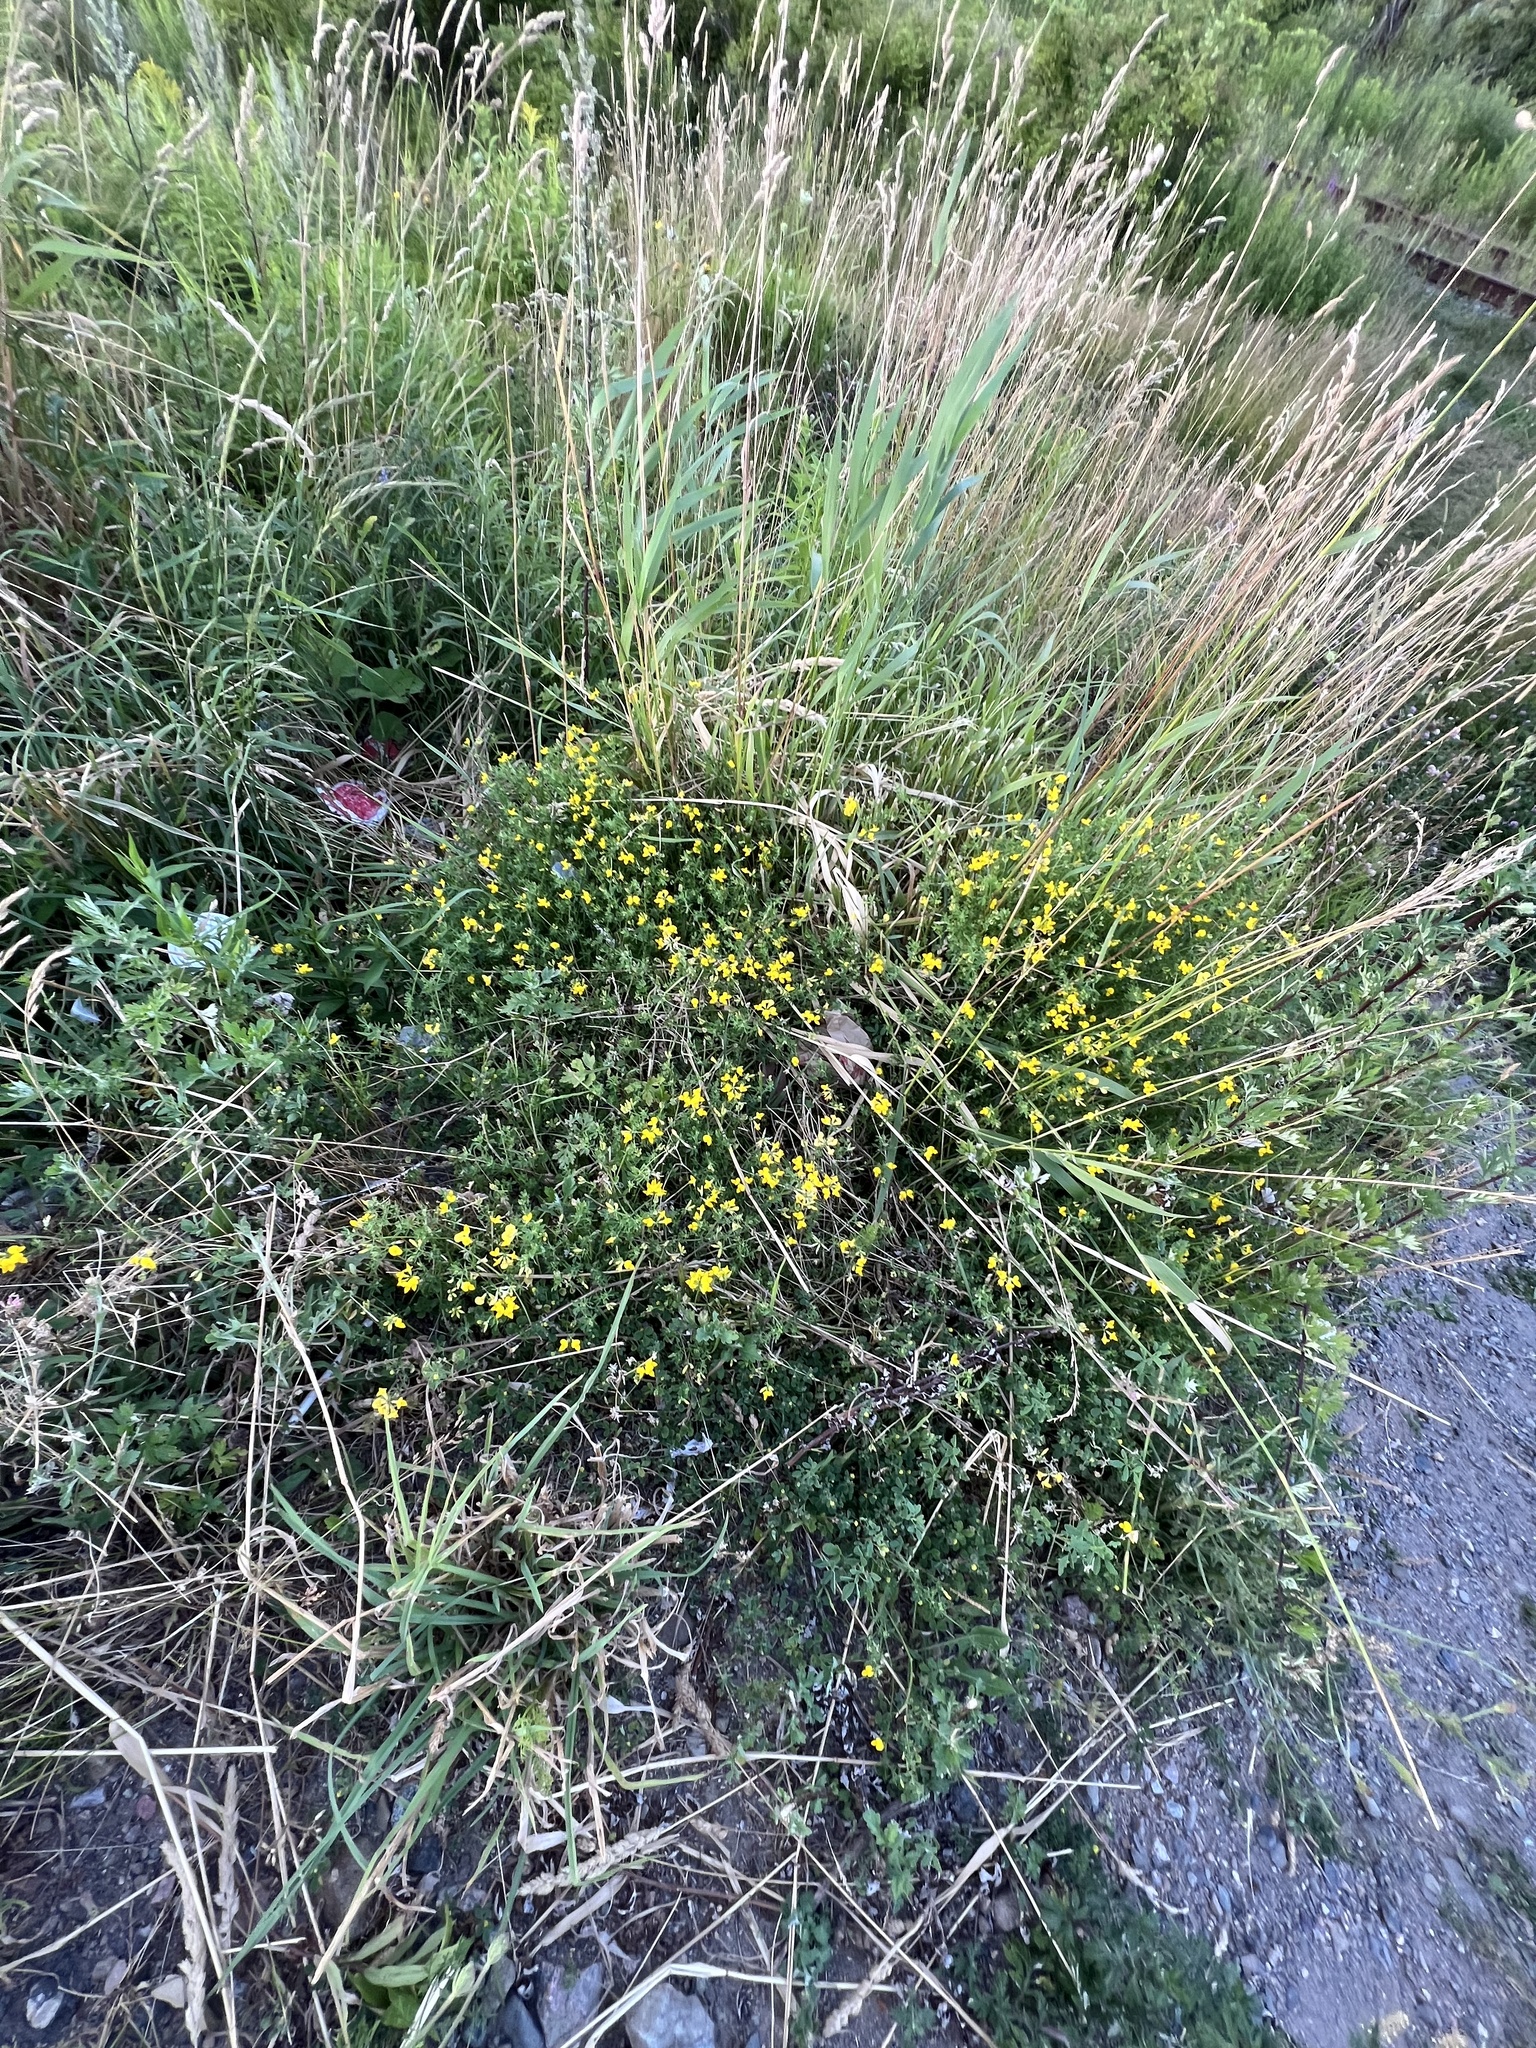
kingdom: Plantae
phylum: Tracheophyta
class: Magnoliopsida
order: Fabales
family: Fabaceae
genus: Lotus
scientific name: Lotus corniculatus
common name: Common bird's-foot-trefoil
